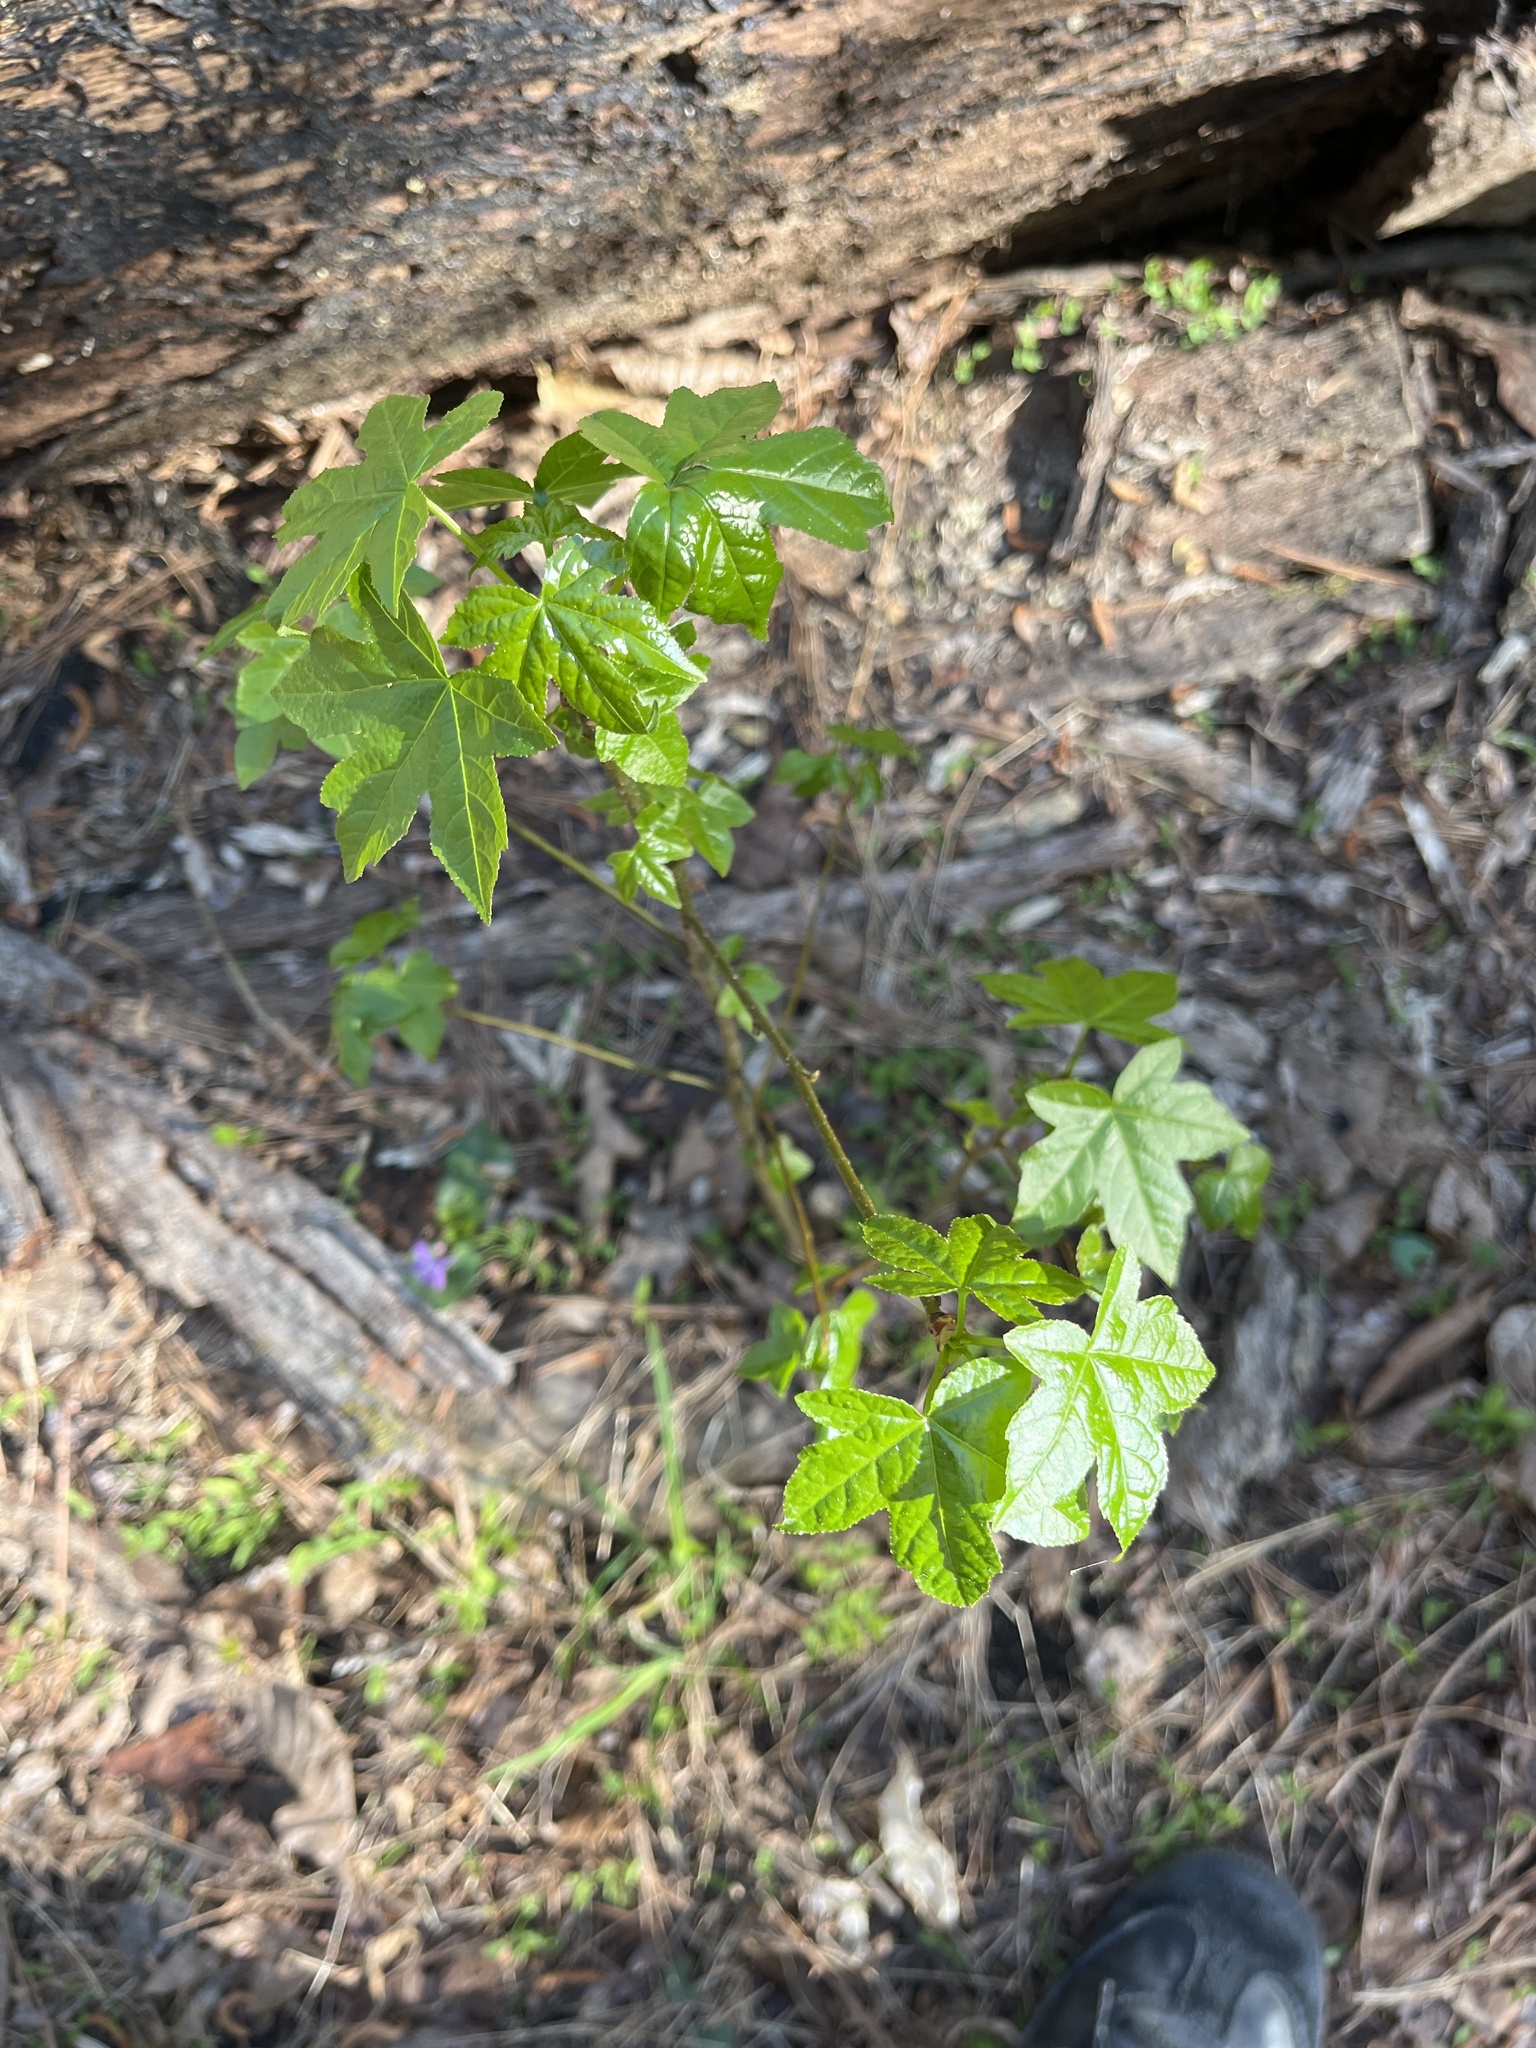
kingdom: Plantae
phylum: Tracheophyta
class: Magnoliopsida
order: Saxifragales
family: Altingiaceae
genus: Liquidambar
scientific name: Liquidambar styraciflua
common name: Sweet gum
